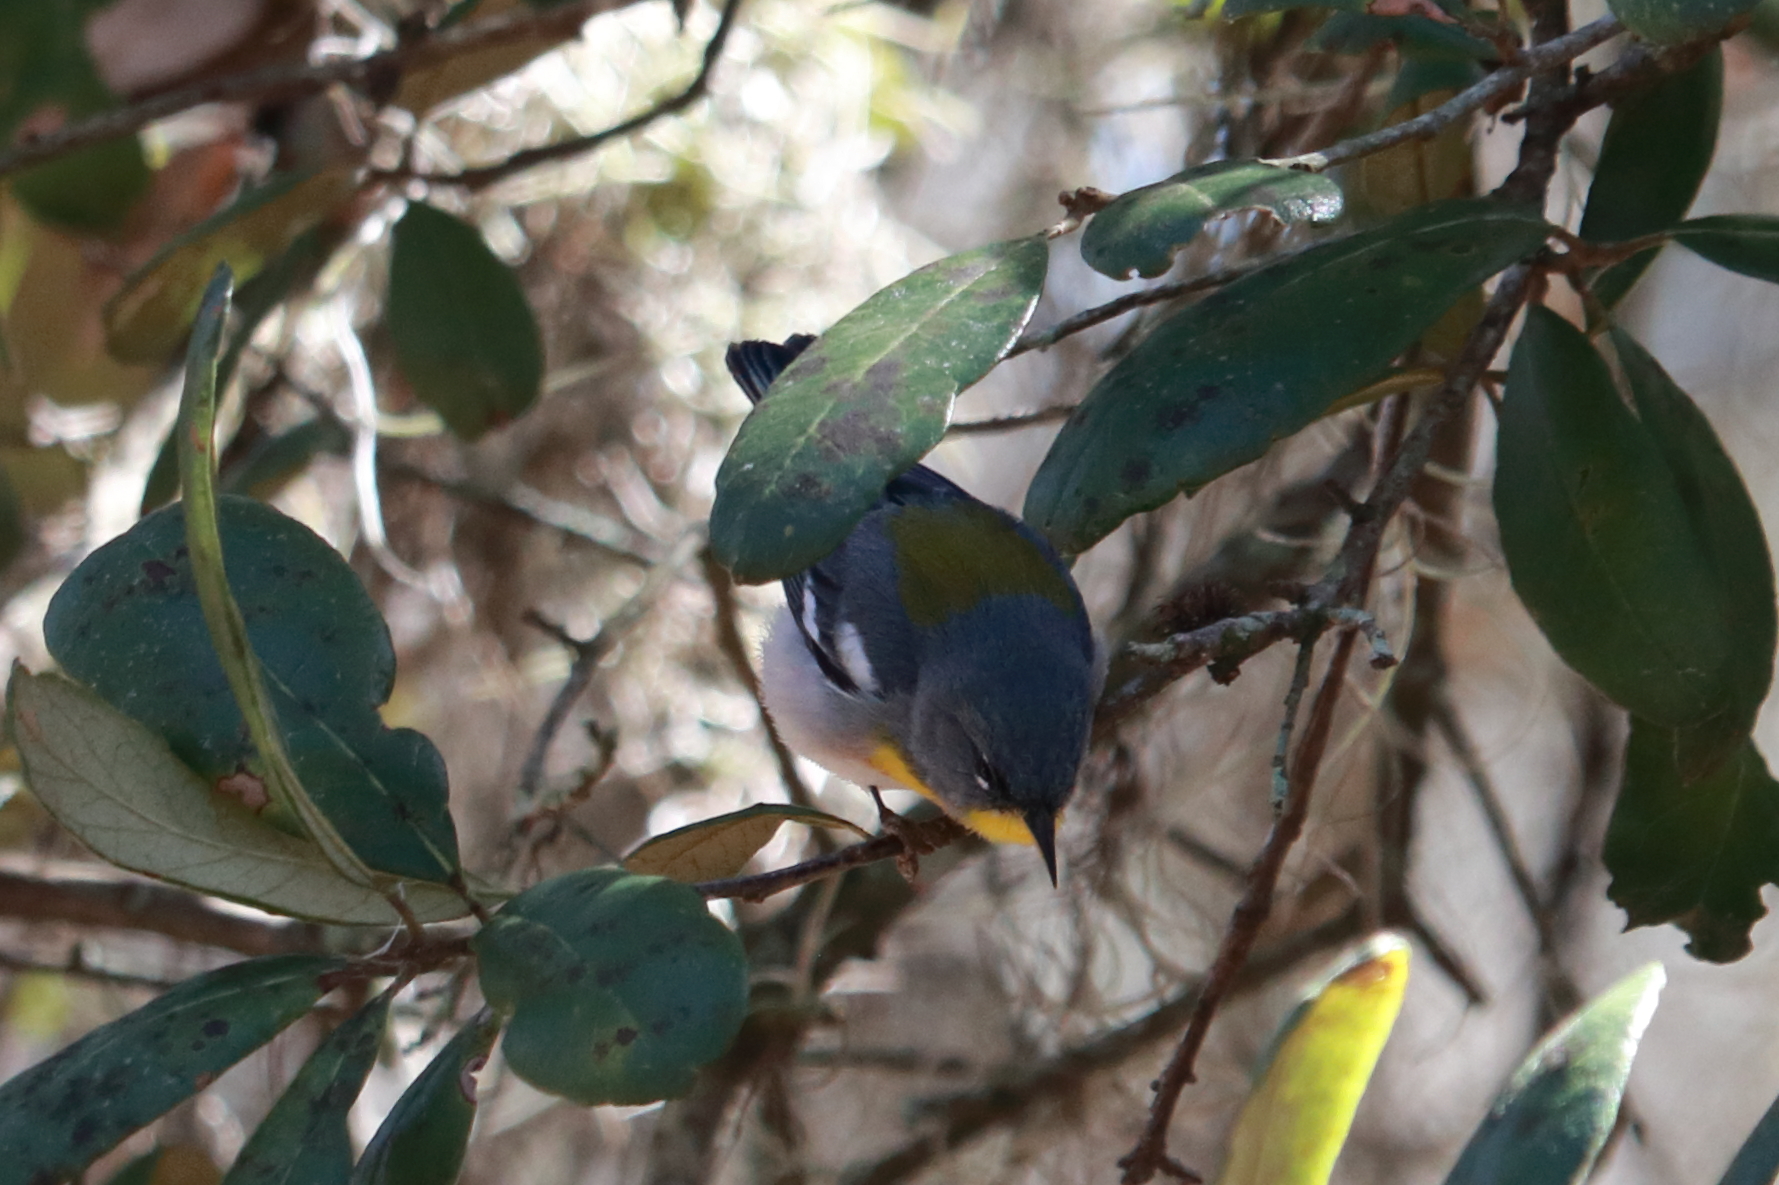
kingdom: Animalia
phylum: Chordata
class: Aves
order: Passeriformes
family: Parulidae
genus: Setophaga
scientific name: Setophaga americana
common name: Northern parula
